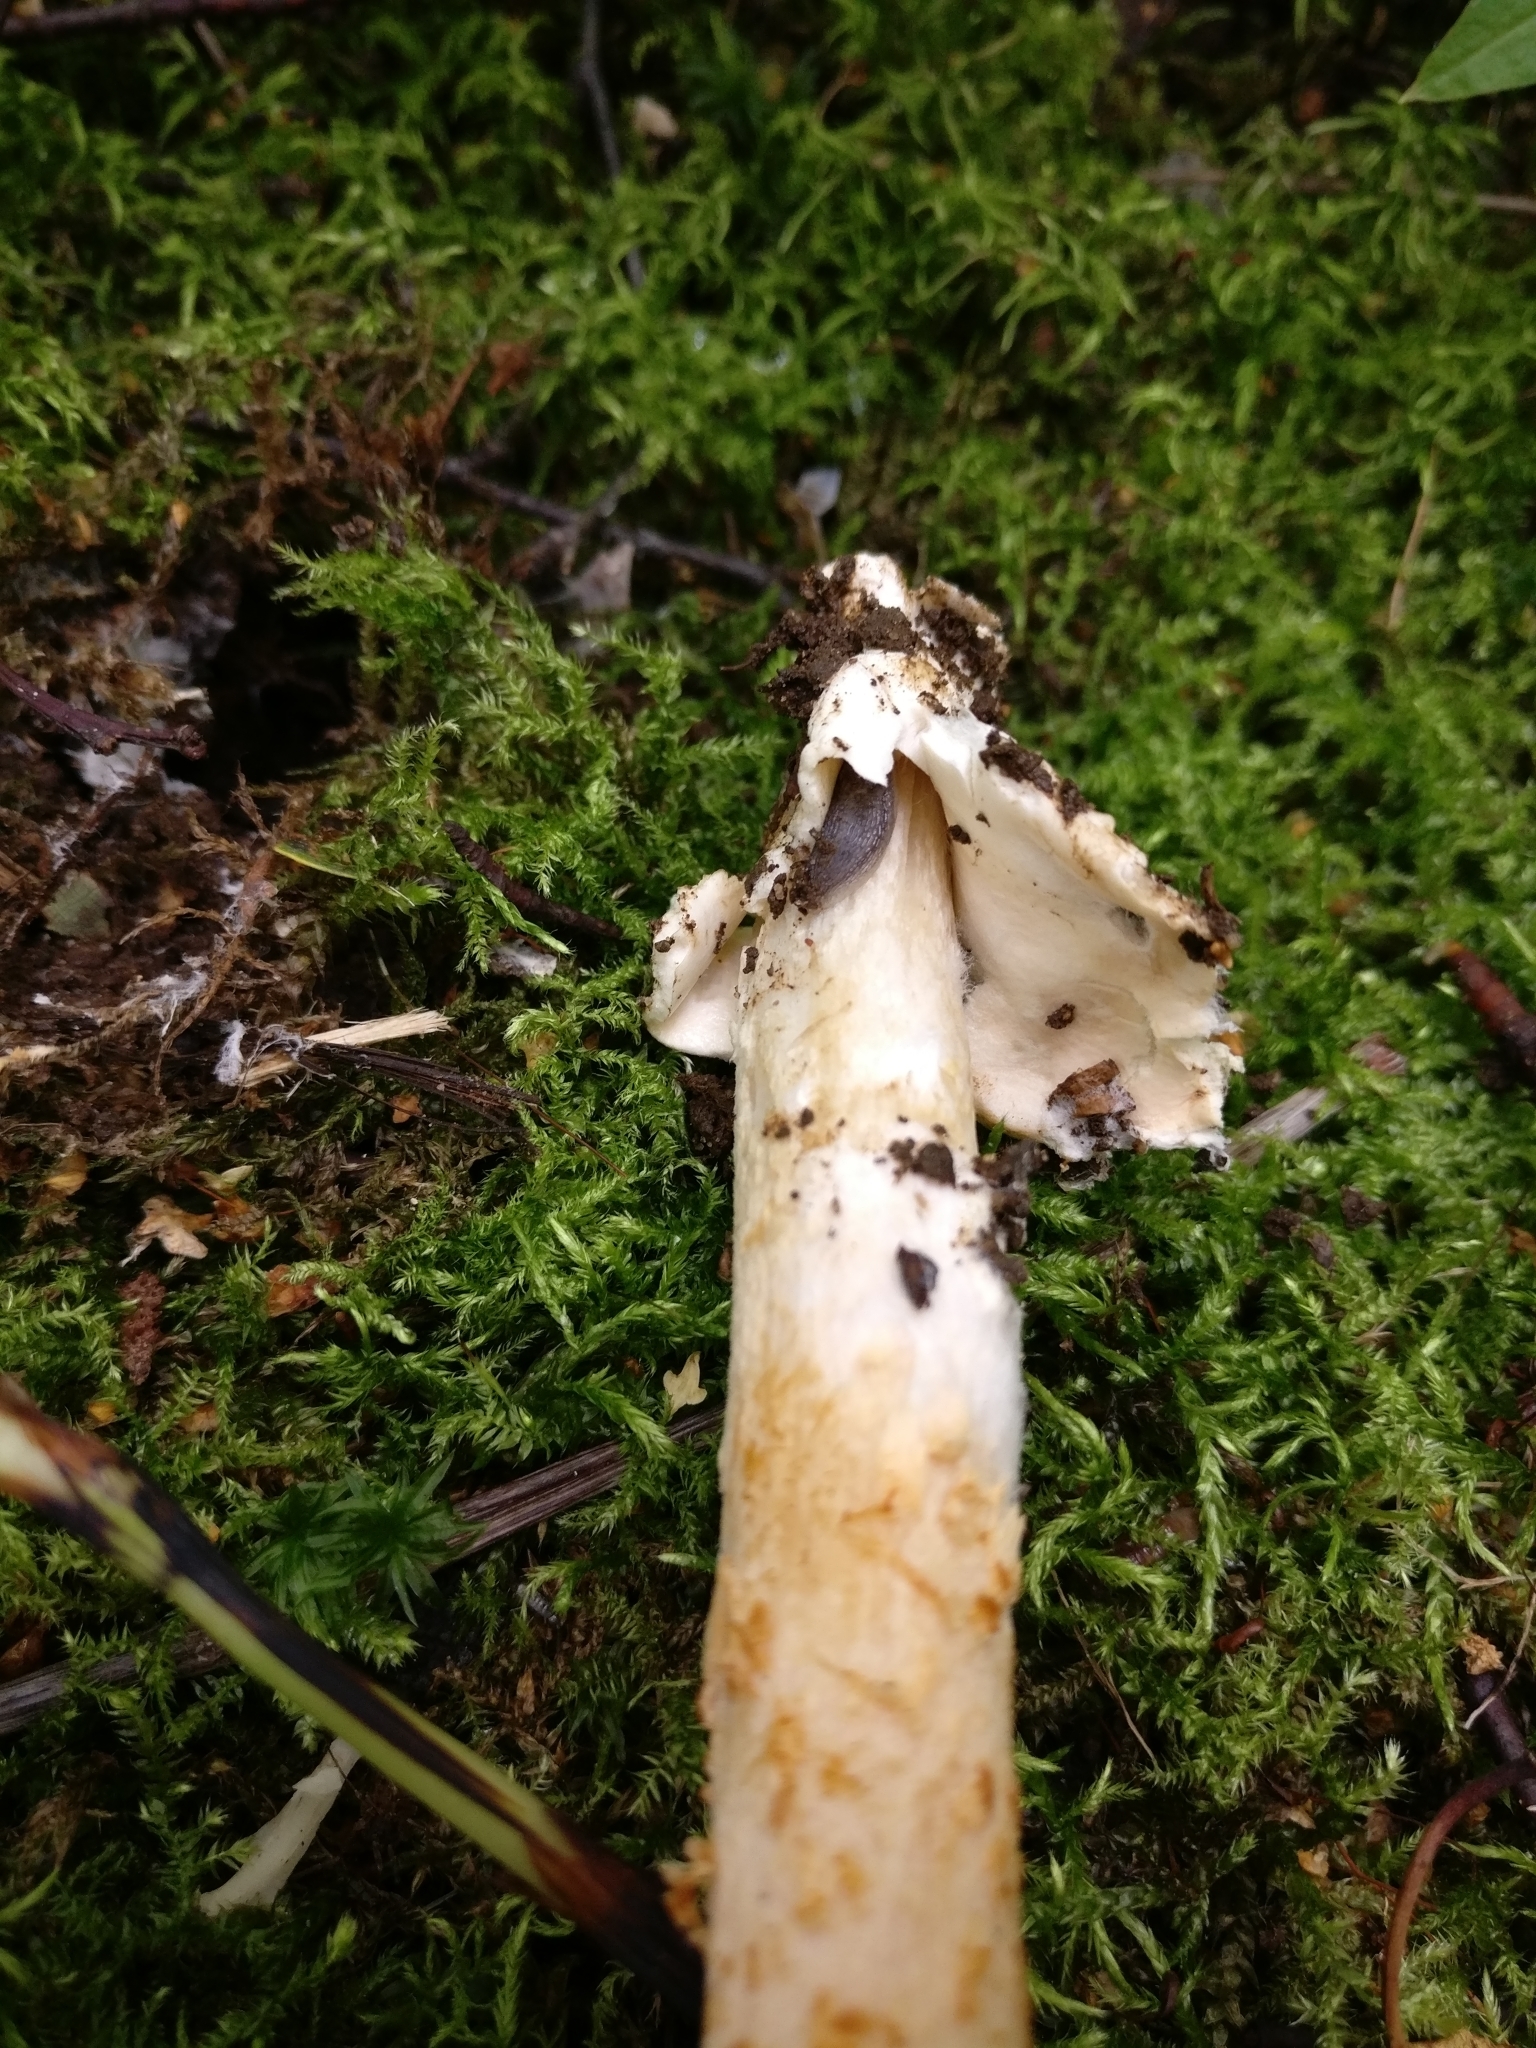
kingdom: Fungi
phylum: Basidiomycota
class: Agaricomycetes
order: Agaricales
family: Amanitaceae
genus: Amanita
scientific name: Amanita crocea
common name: Orange grisette
